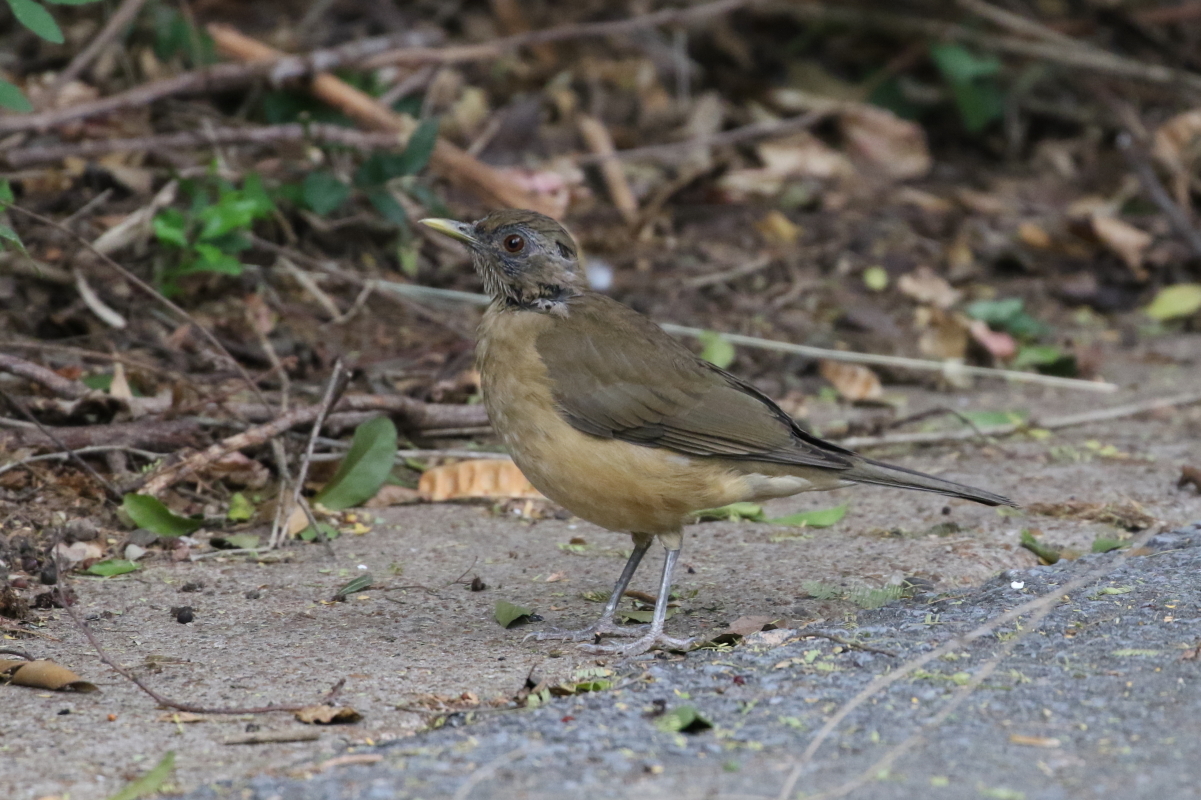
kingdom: Animalia
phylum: Chordata
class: Aves
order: Passeriformes
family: Turdidae
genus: Turdus
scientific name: Turdus grayi
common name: Clay-colored thrush
